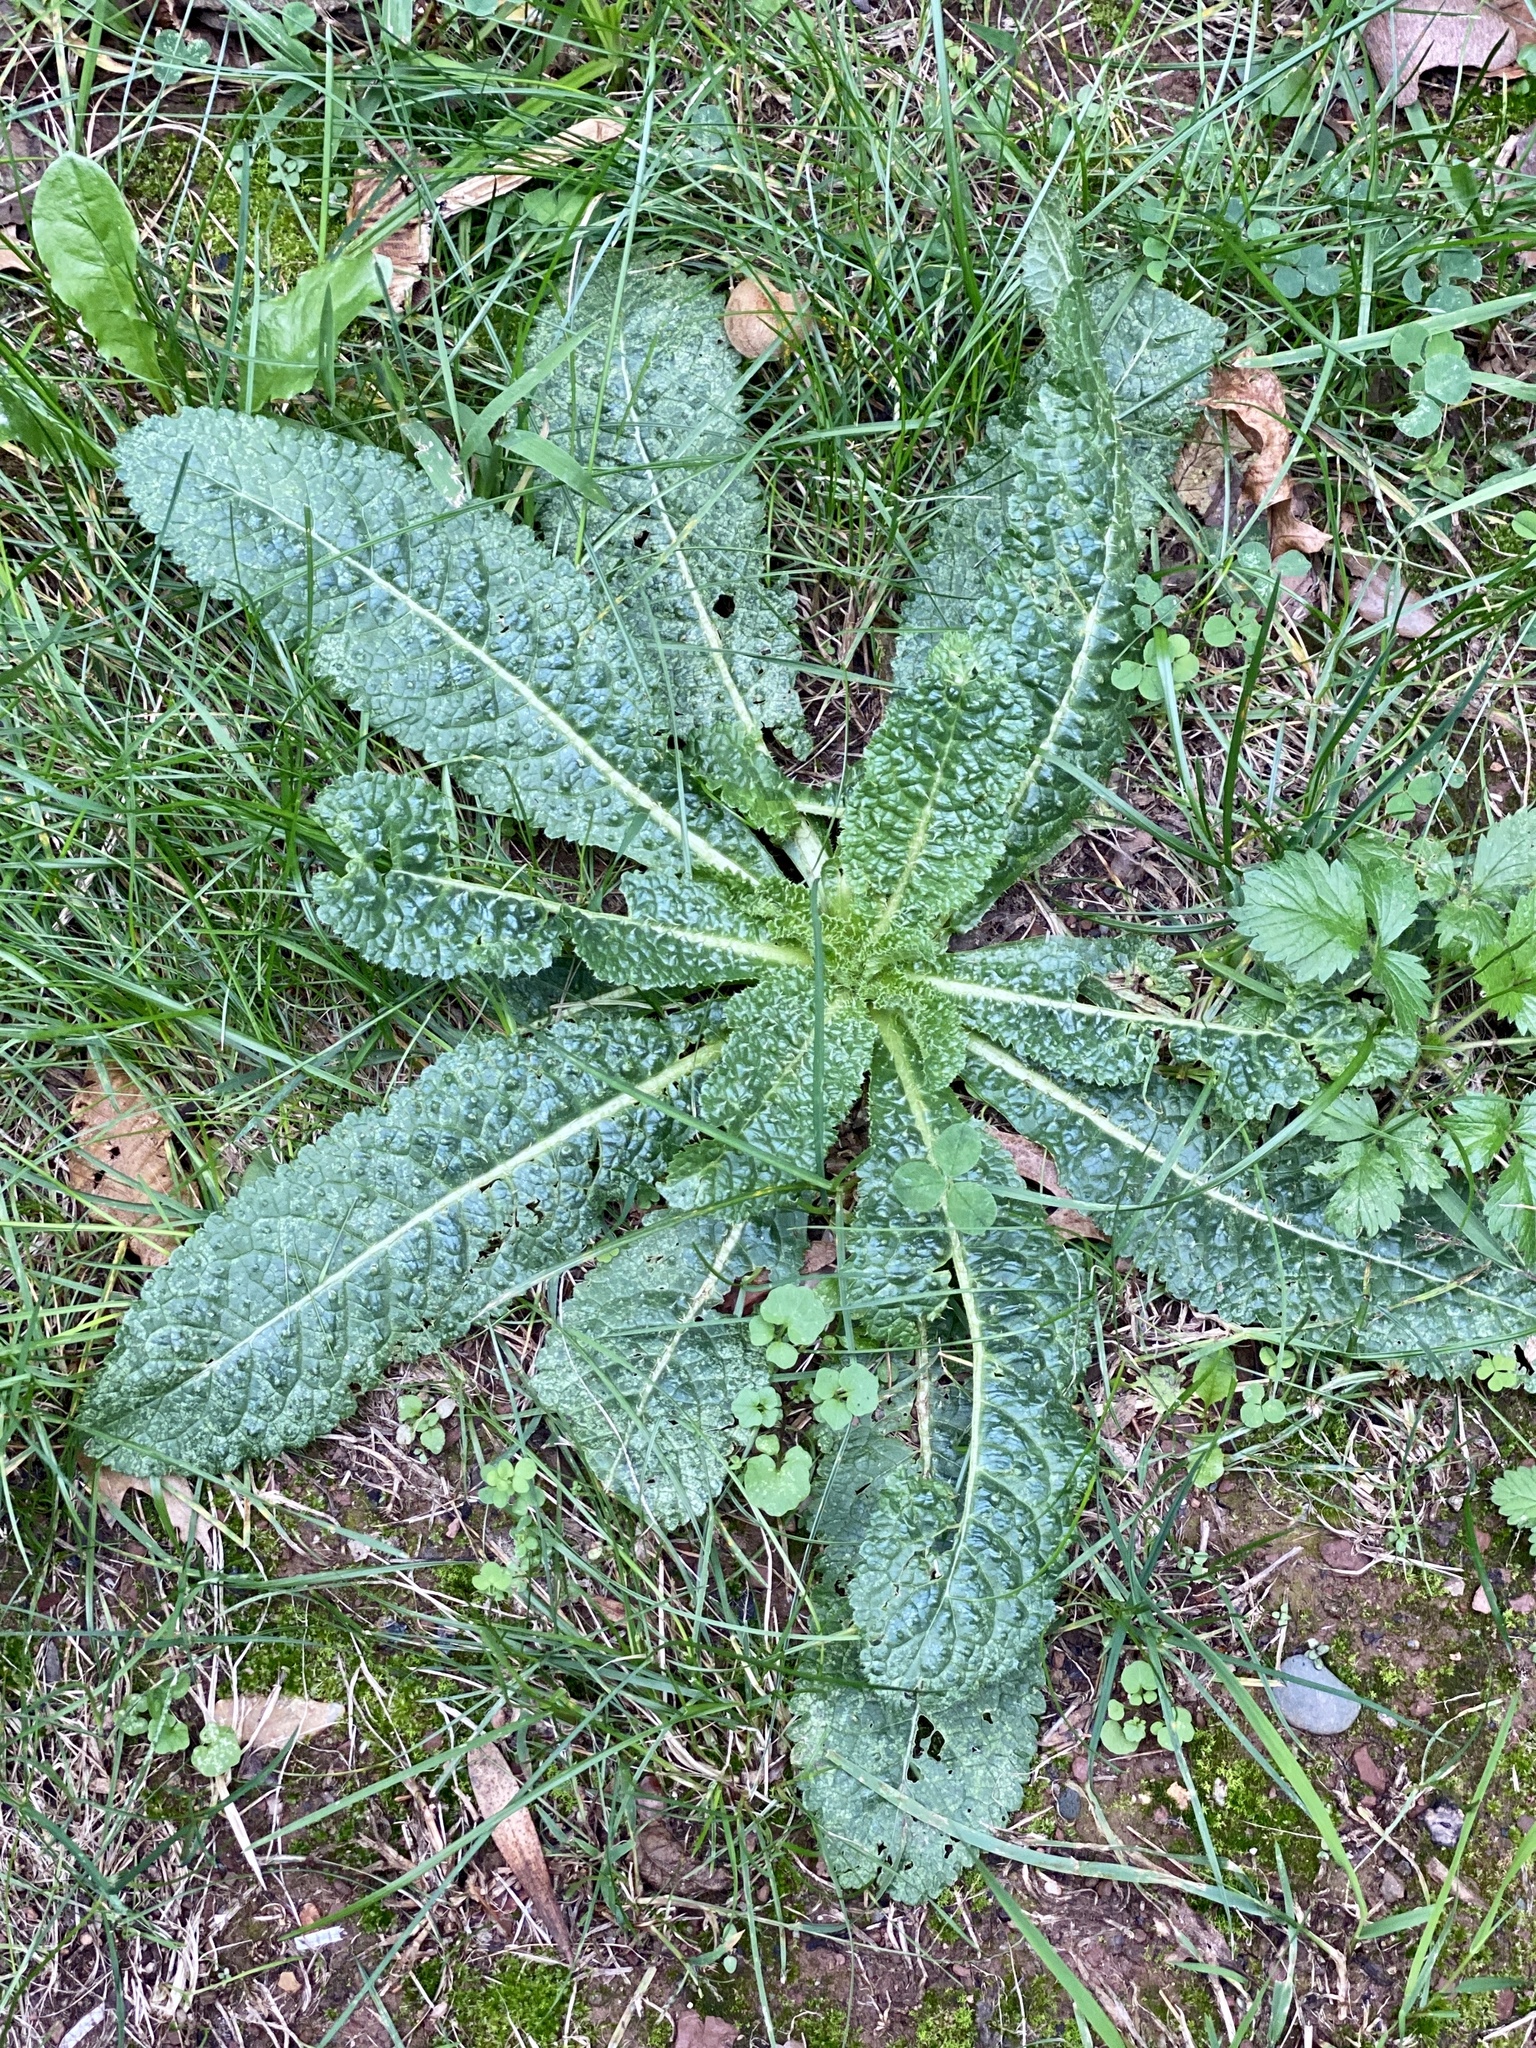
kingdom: Plantae
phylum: Tracheophyta
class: Magnoliopsida
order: Dipsacales
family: Caprifoliaceae
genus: Dipsacus
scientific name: Dipsacus fullonum
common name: Teasel
